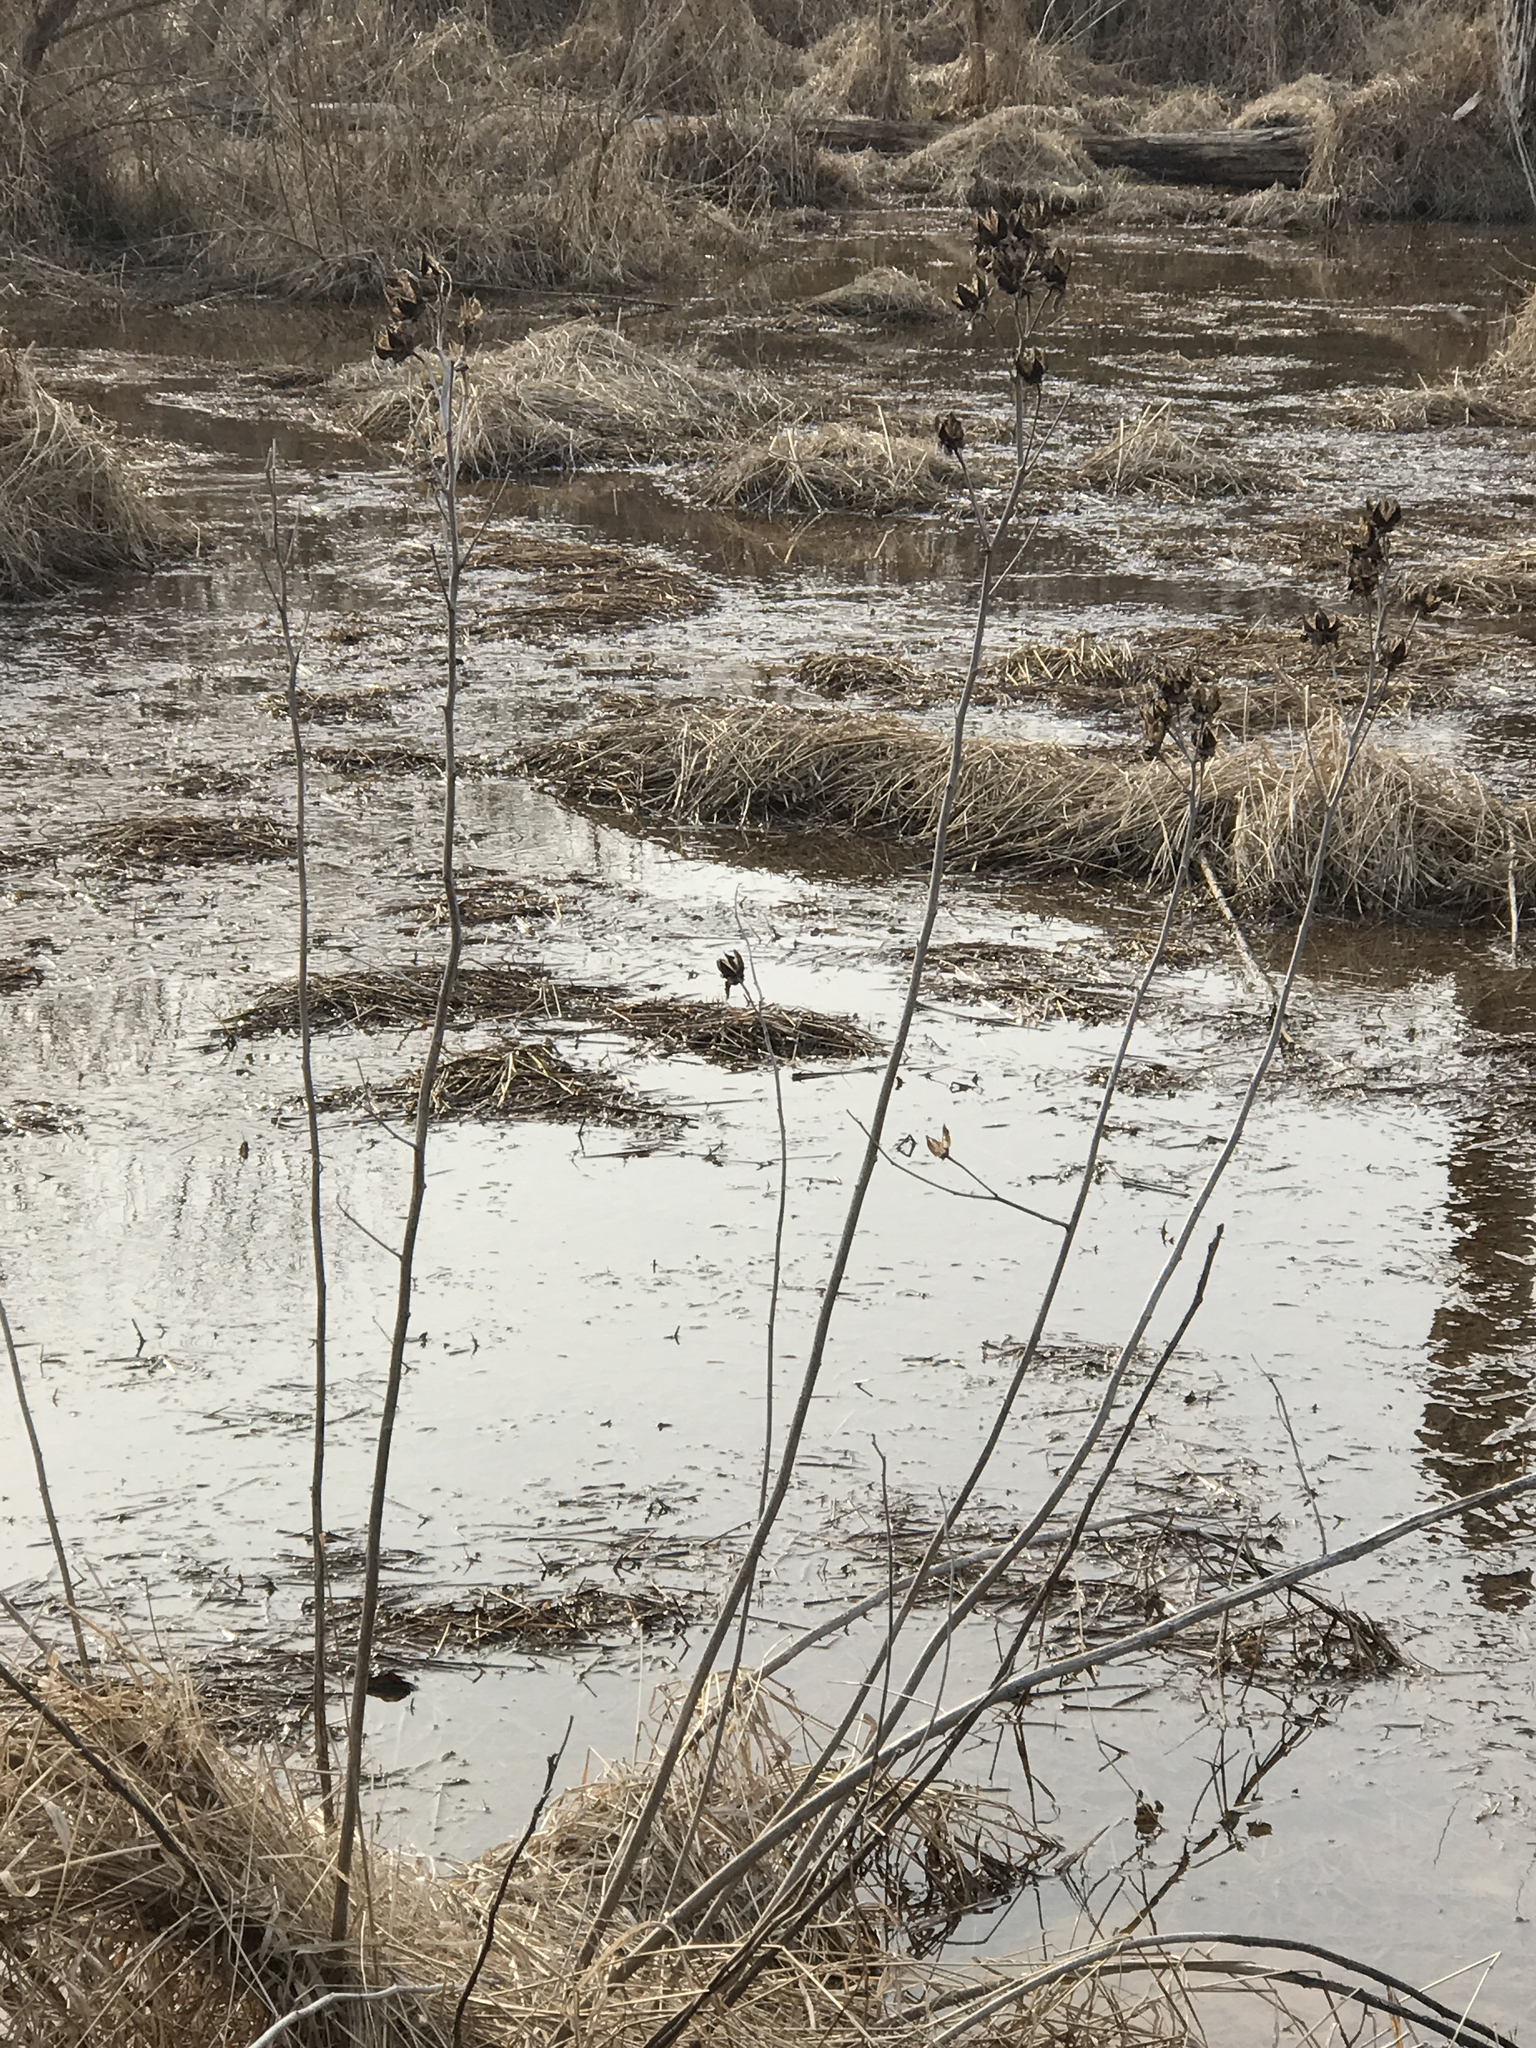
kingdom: Plantae
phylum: Tracheophyta
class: Magnoliopsida
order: Malvales
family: Malvaceae
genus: Hibiscus
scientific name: Hibiscus moscheutos
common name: Common rose-mallow
